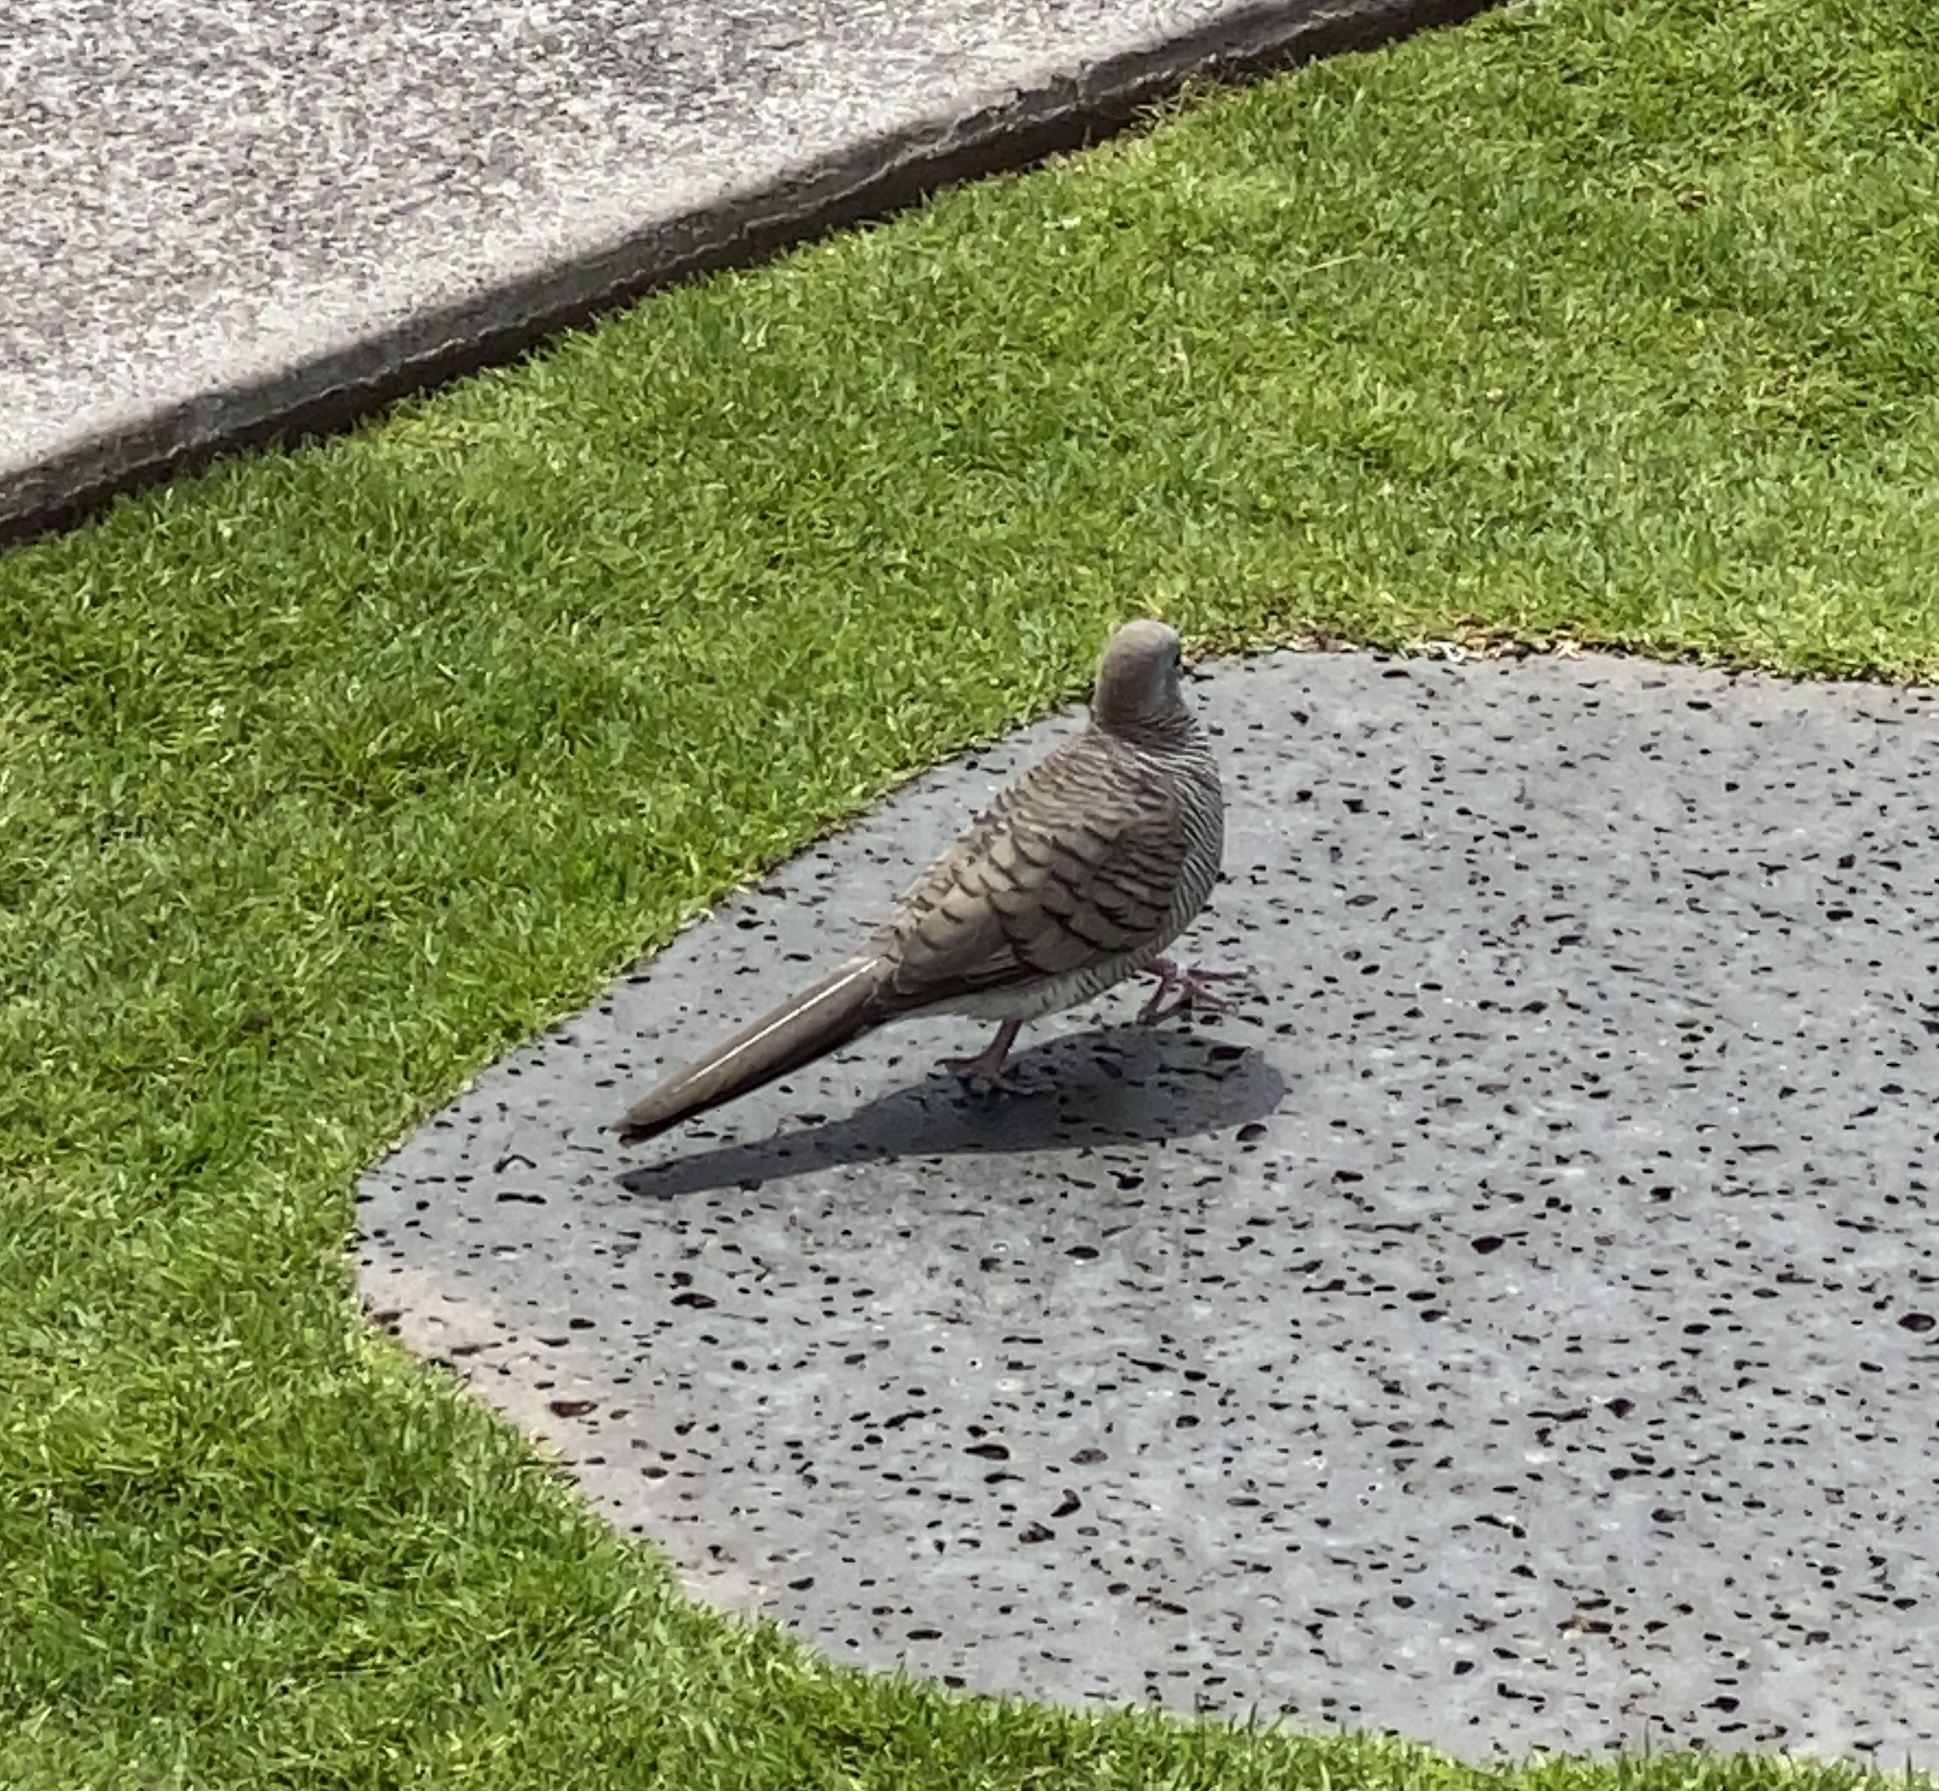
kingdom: Animalia
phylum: Chordata
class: Aves
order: Columbiformes
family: Columbidae
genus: Geopelia
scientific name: Geopelia striata
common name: Zebra dove
